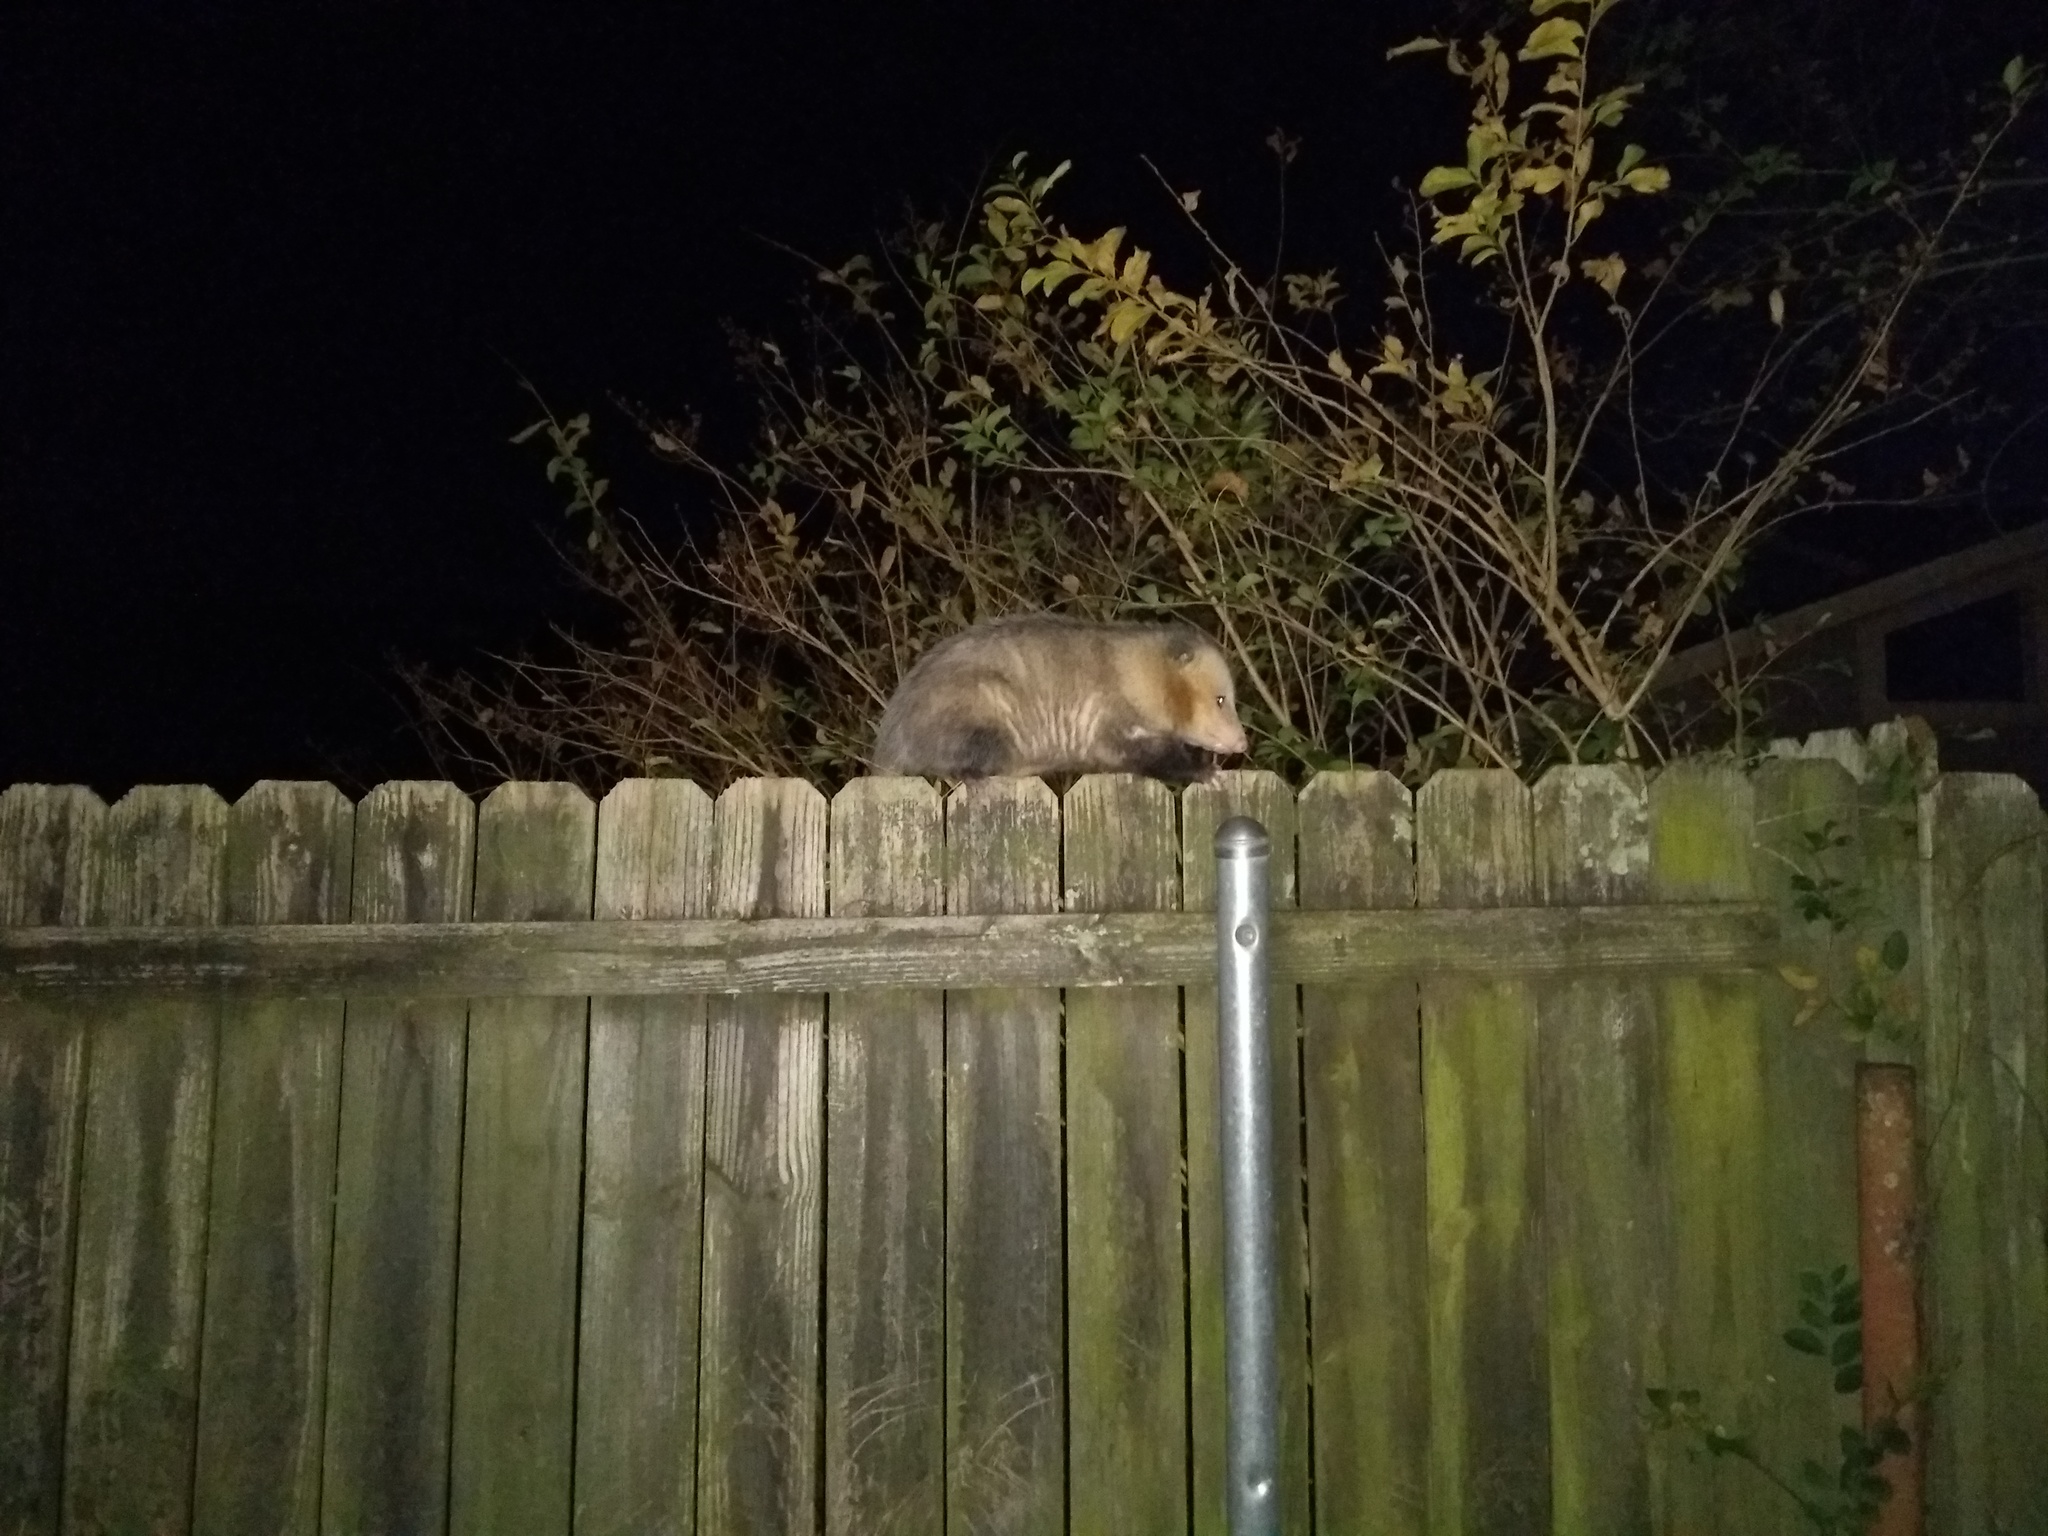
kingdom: Animalia
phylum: Chordata
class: Mammalia
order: Didelphimorphia
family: Didelphidae
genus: Didelphis
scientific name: Didelphis virginiana
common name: Virginia opossum
